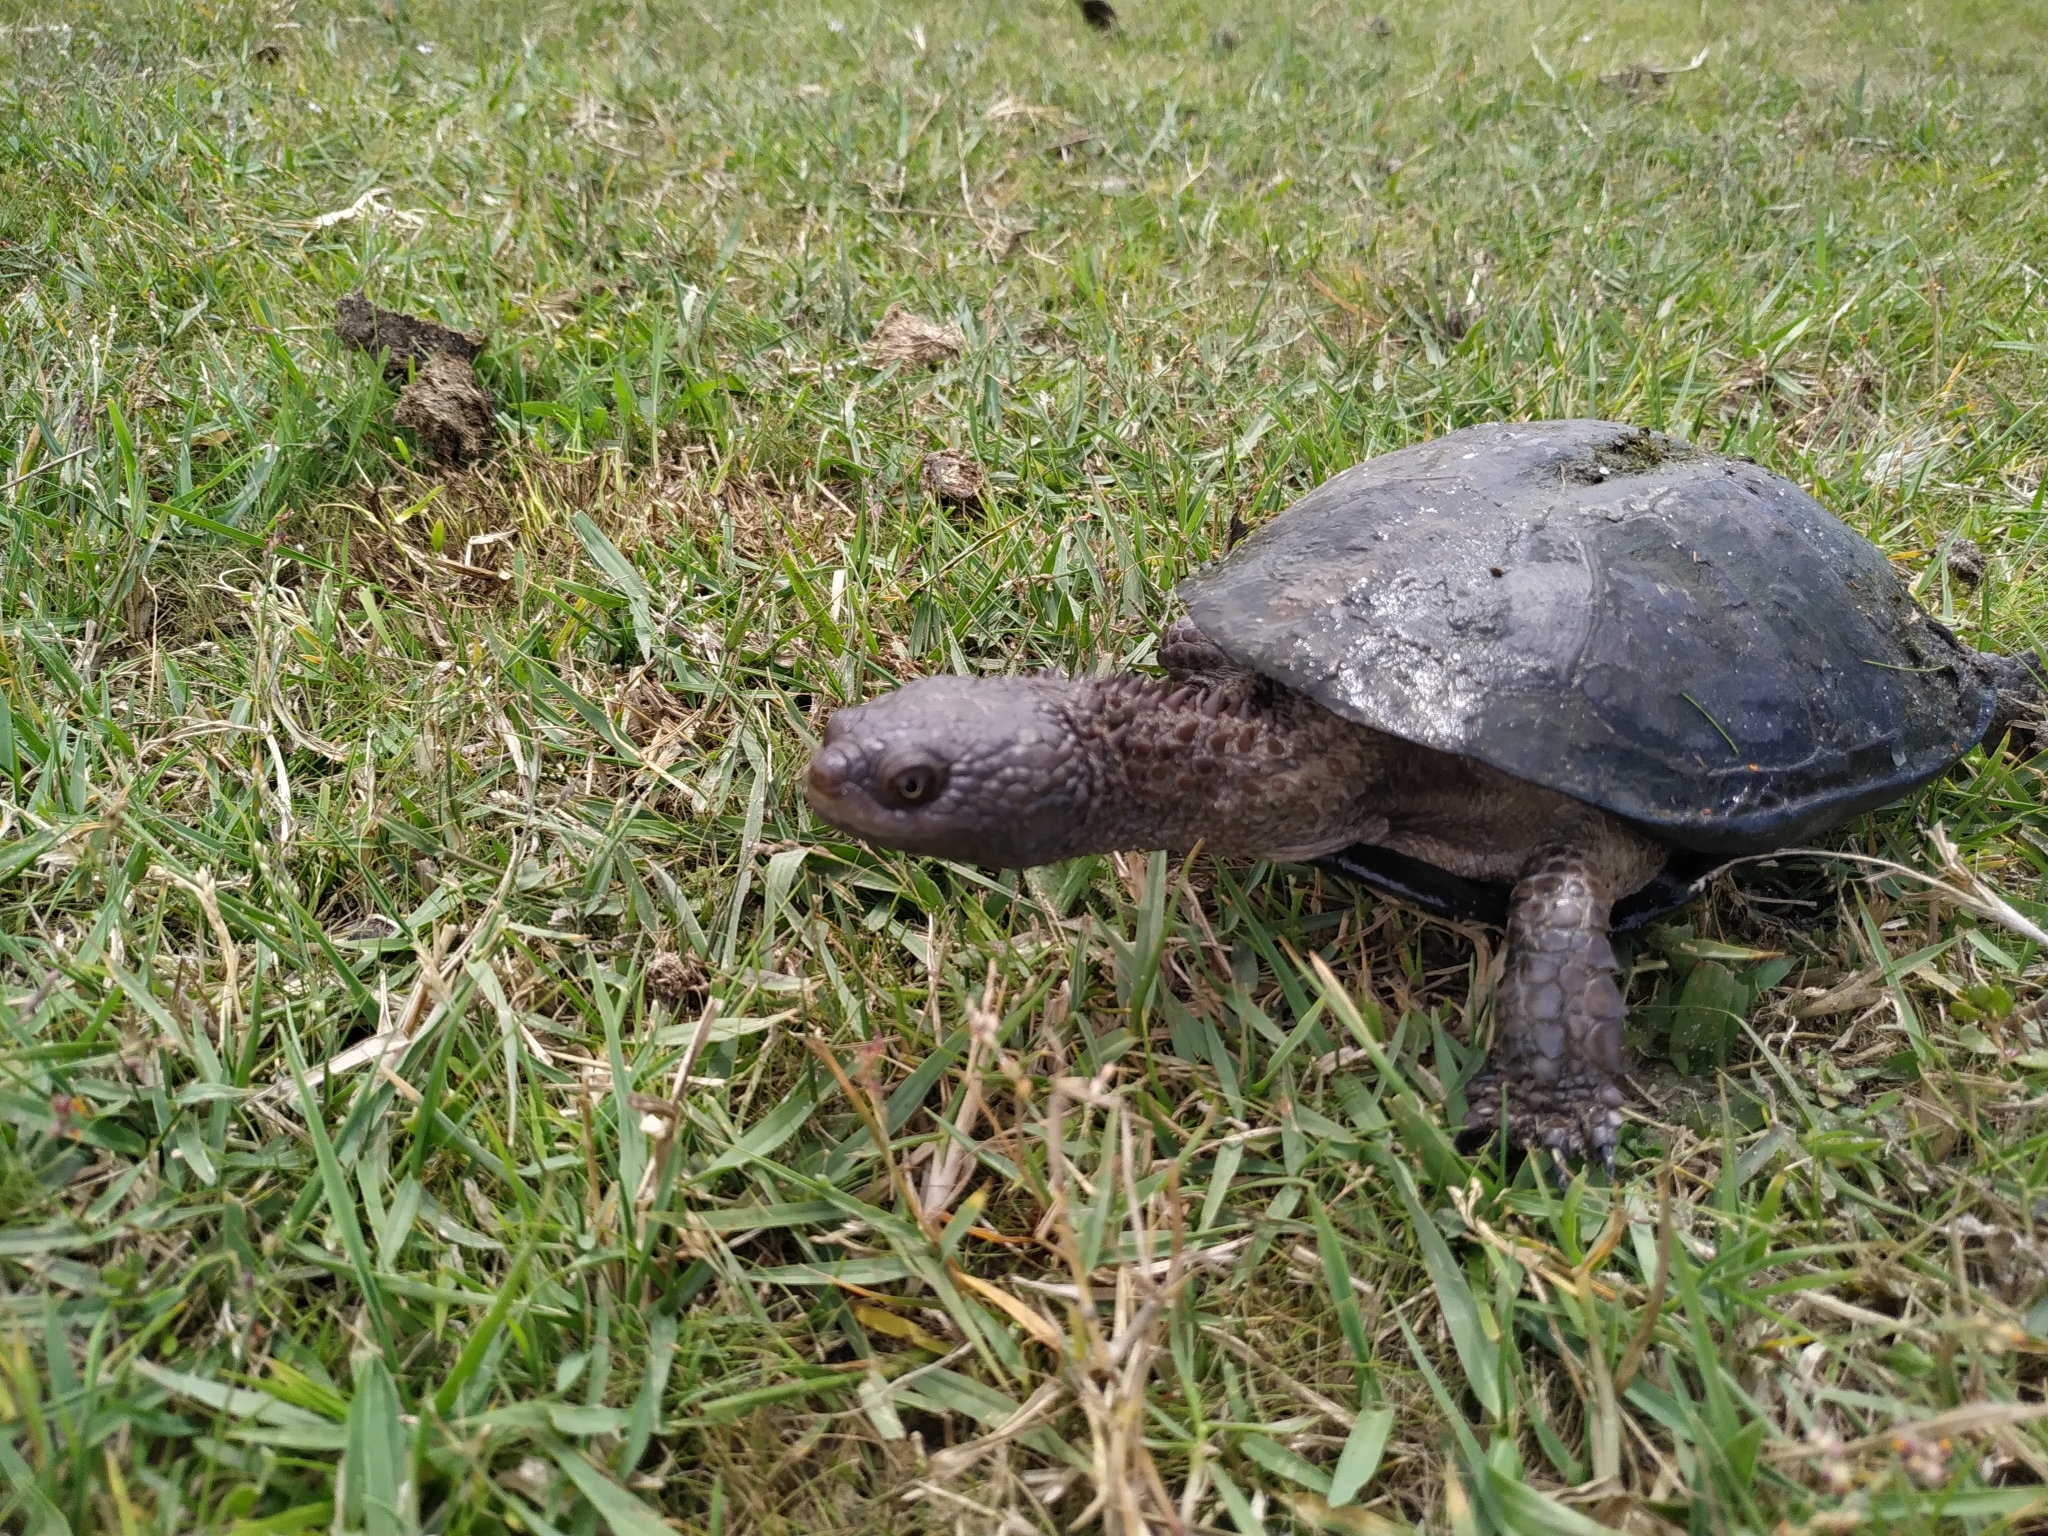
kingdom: Animalia
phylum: Chordata
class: Testudines
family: Chelidae
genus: Acanthochelys
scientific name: Acanthochelys spixii
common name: Black spine-neck swamp turtle
